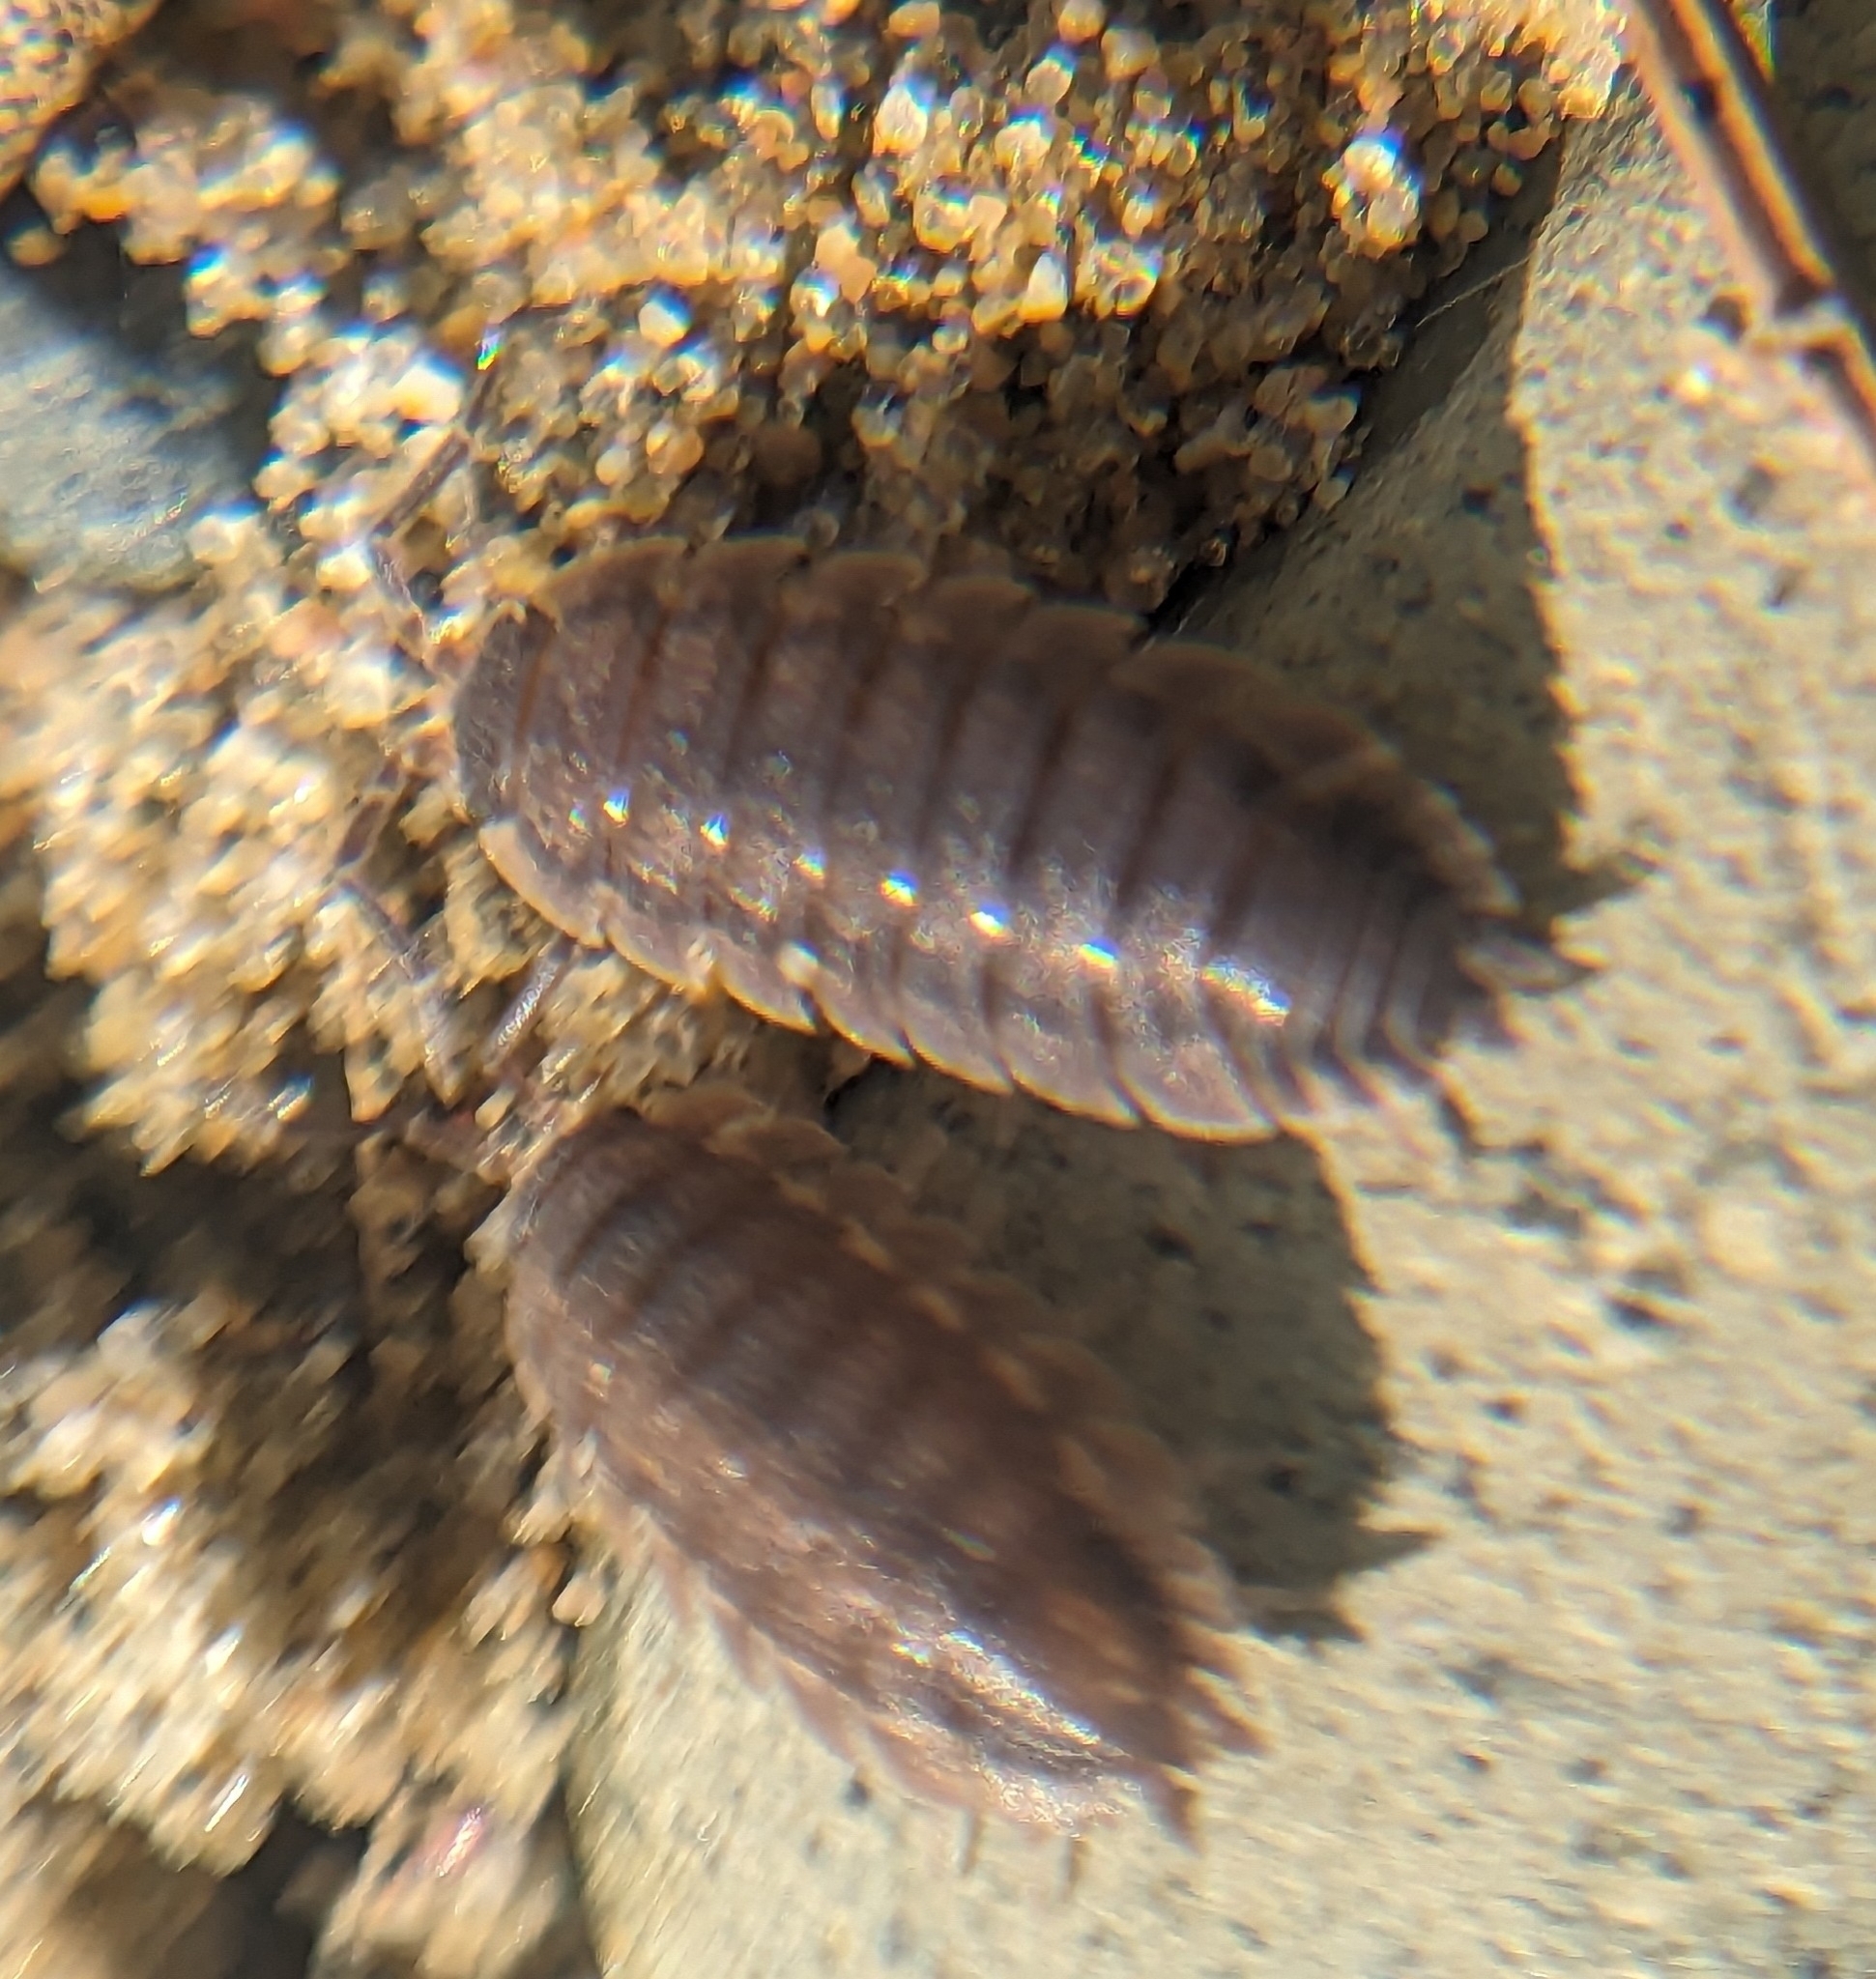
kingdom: Animalia
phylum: Arthropoda
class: Malacostraca
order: Isopoda
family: Porcellionidae
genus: Porcellio
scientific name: Porcellio scaber
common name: Common rough woodlouse
